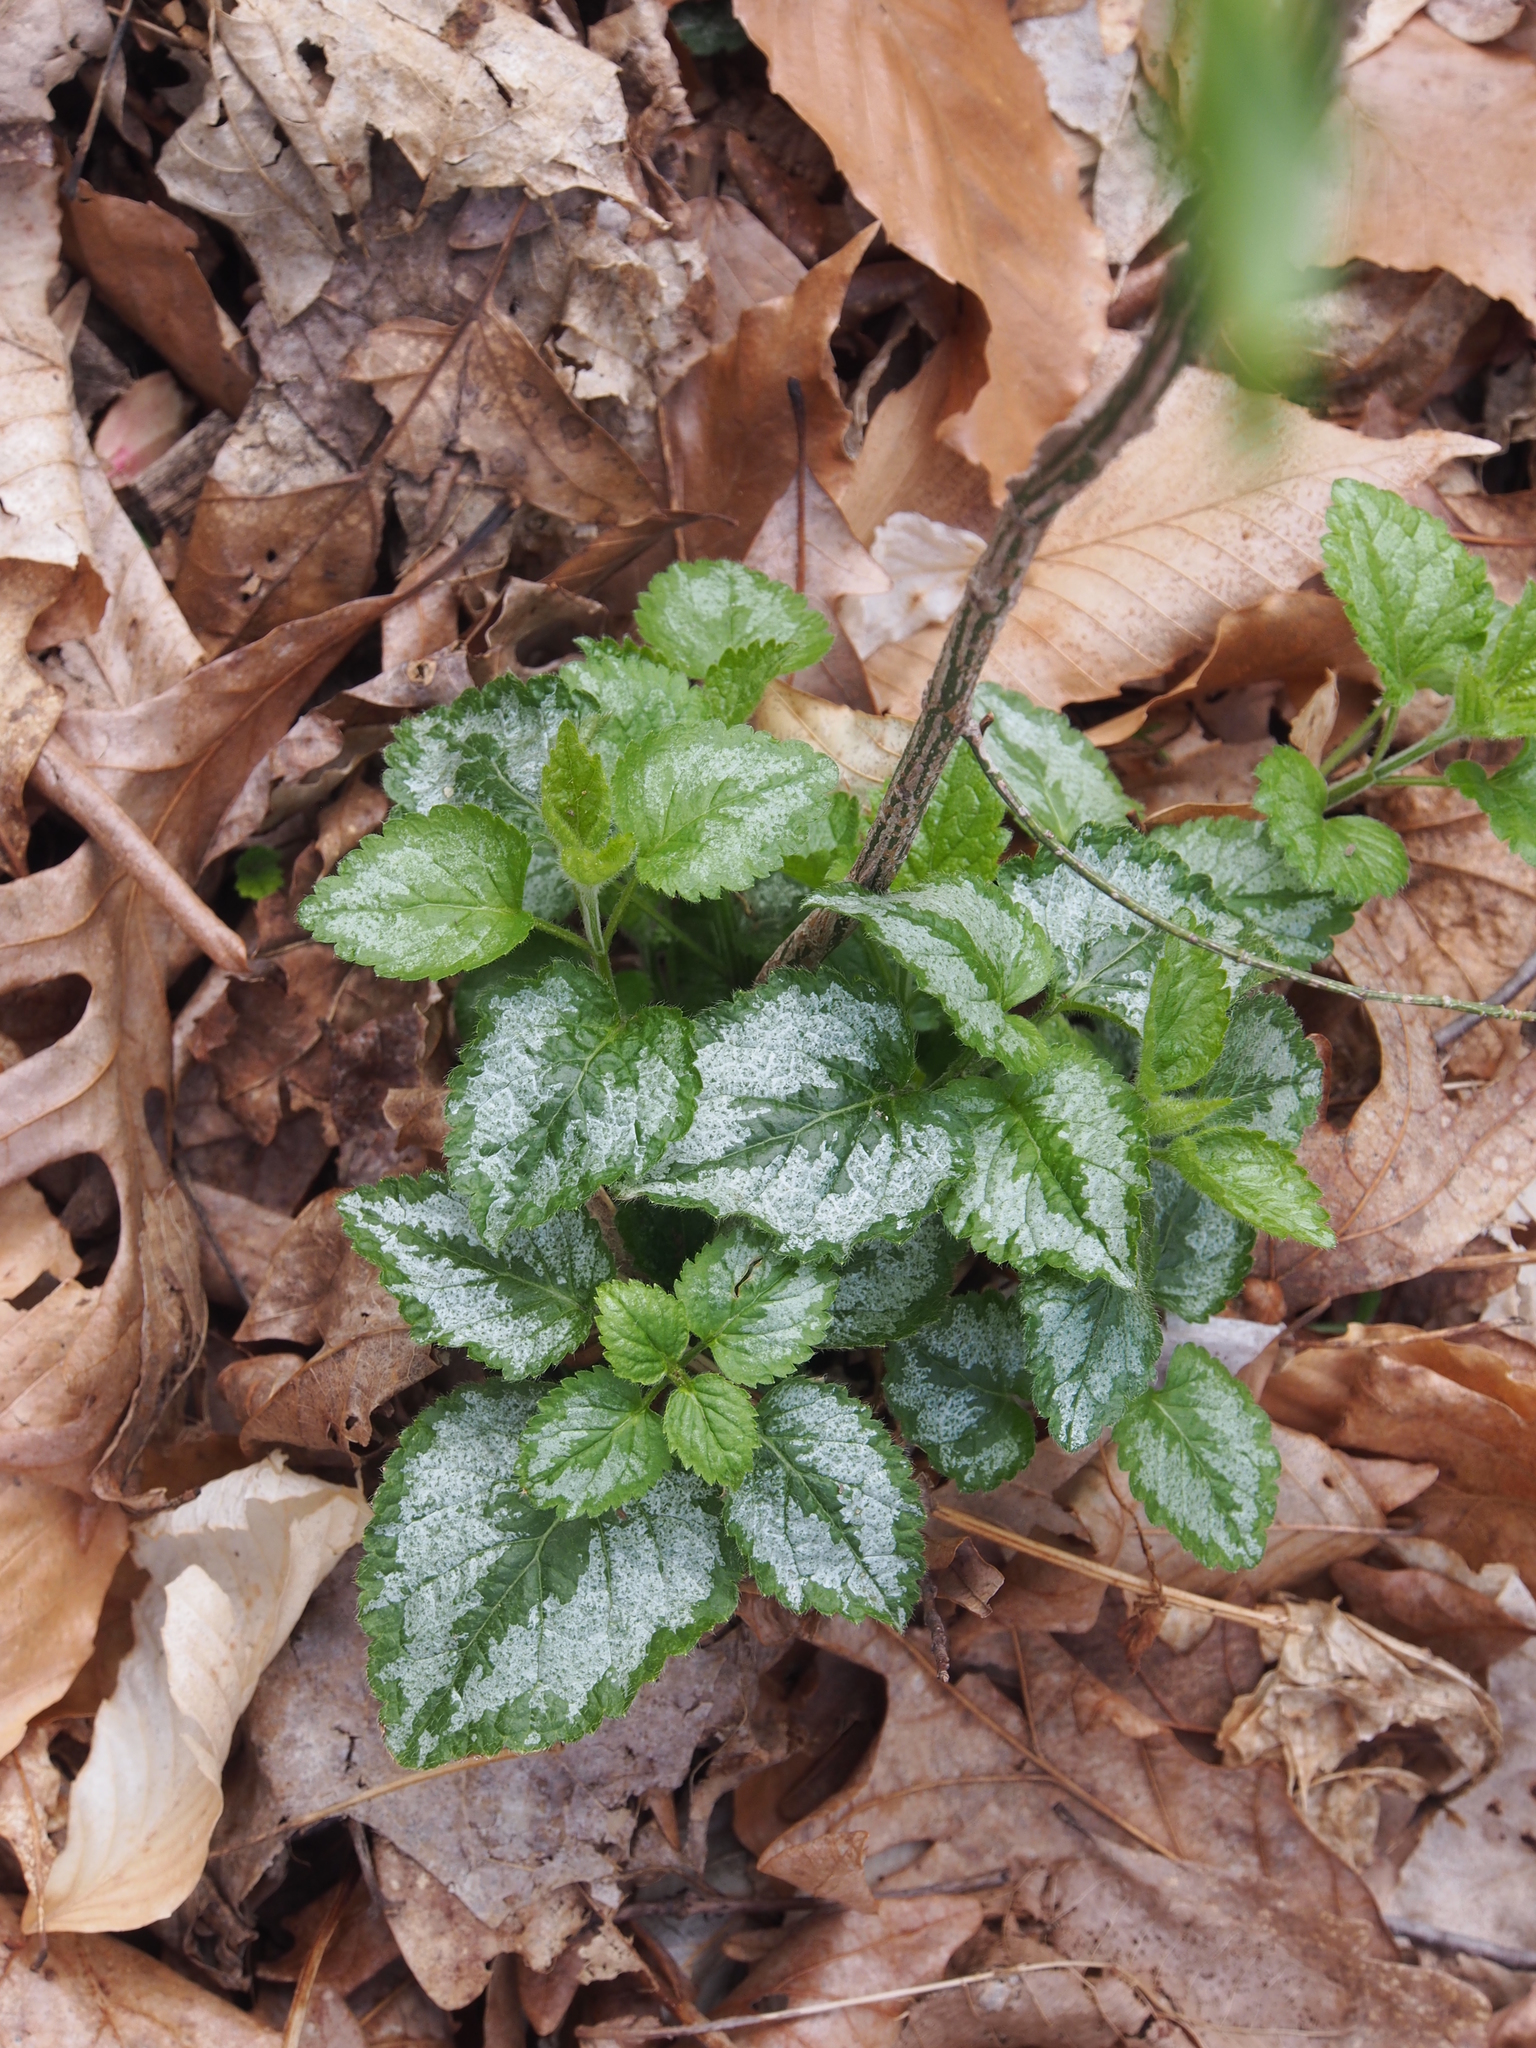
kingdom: Plantae
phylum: Tracheophyta
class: Magnoliopsida
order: Lamiales
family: Lamiaceae
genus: Lamium
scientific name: Lamium galeobdolon
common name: Yellow archangel
